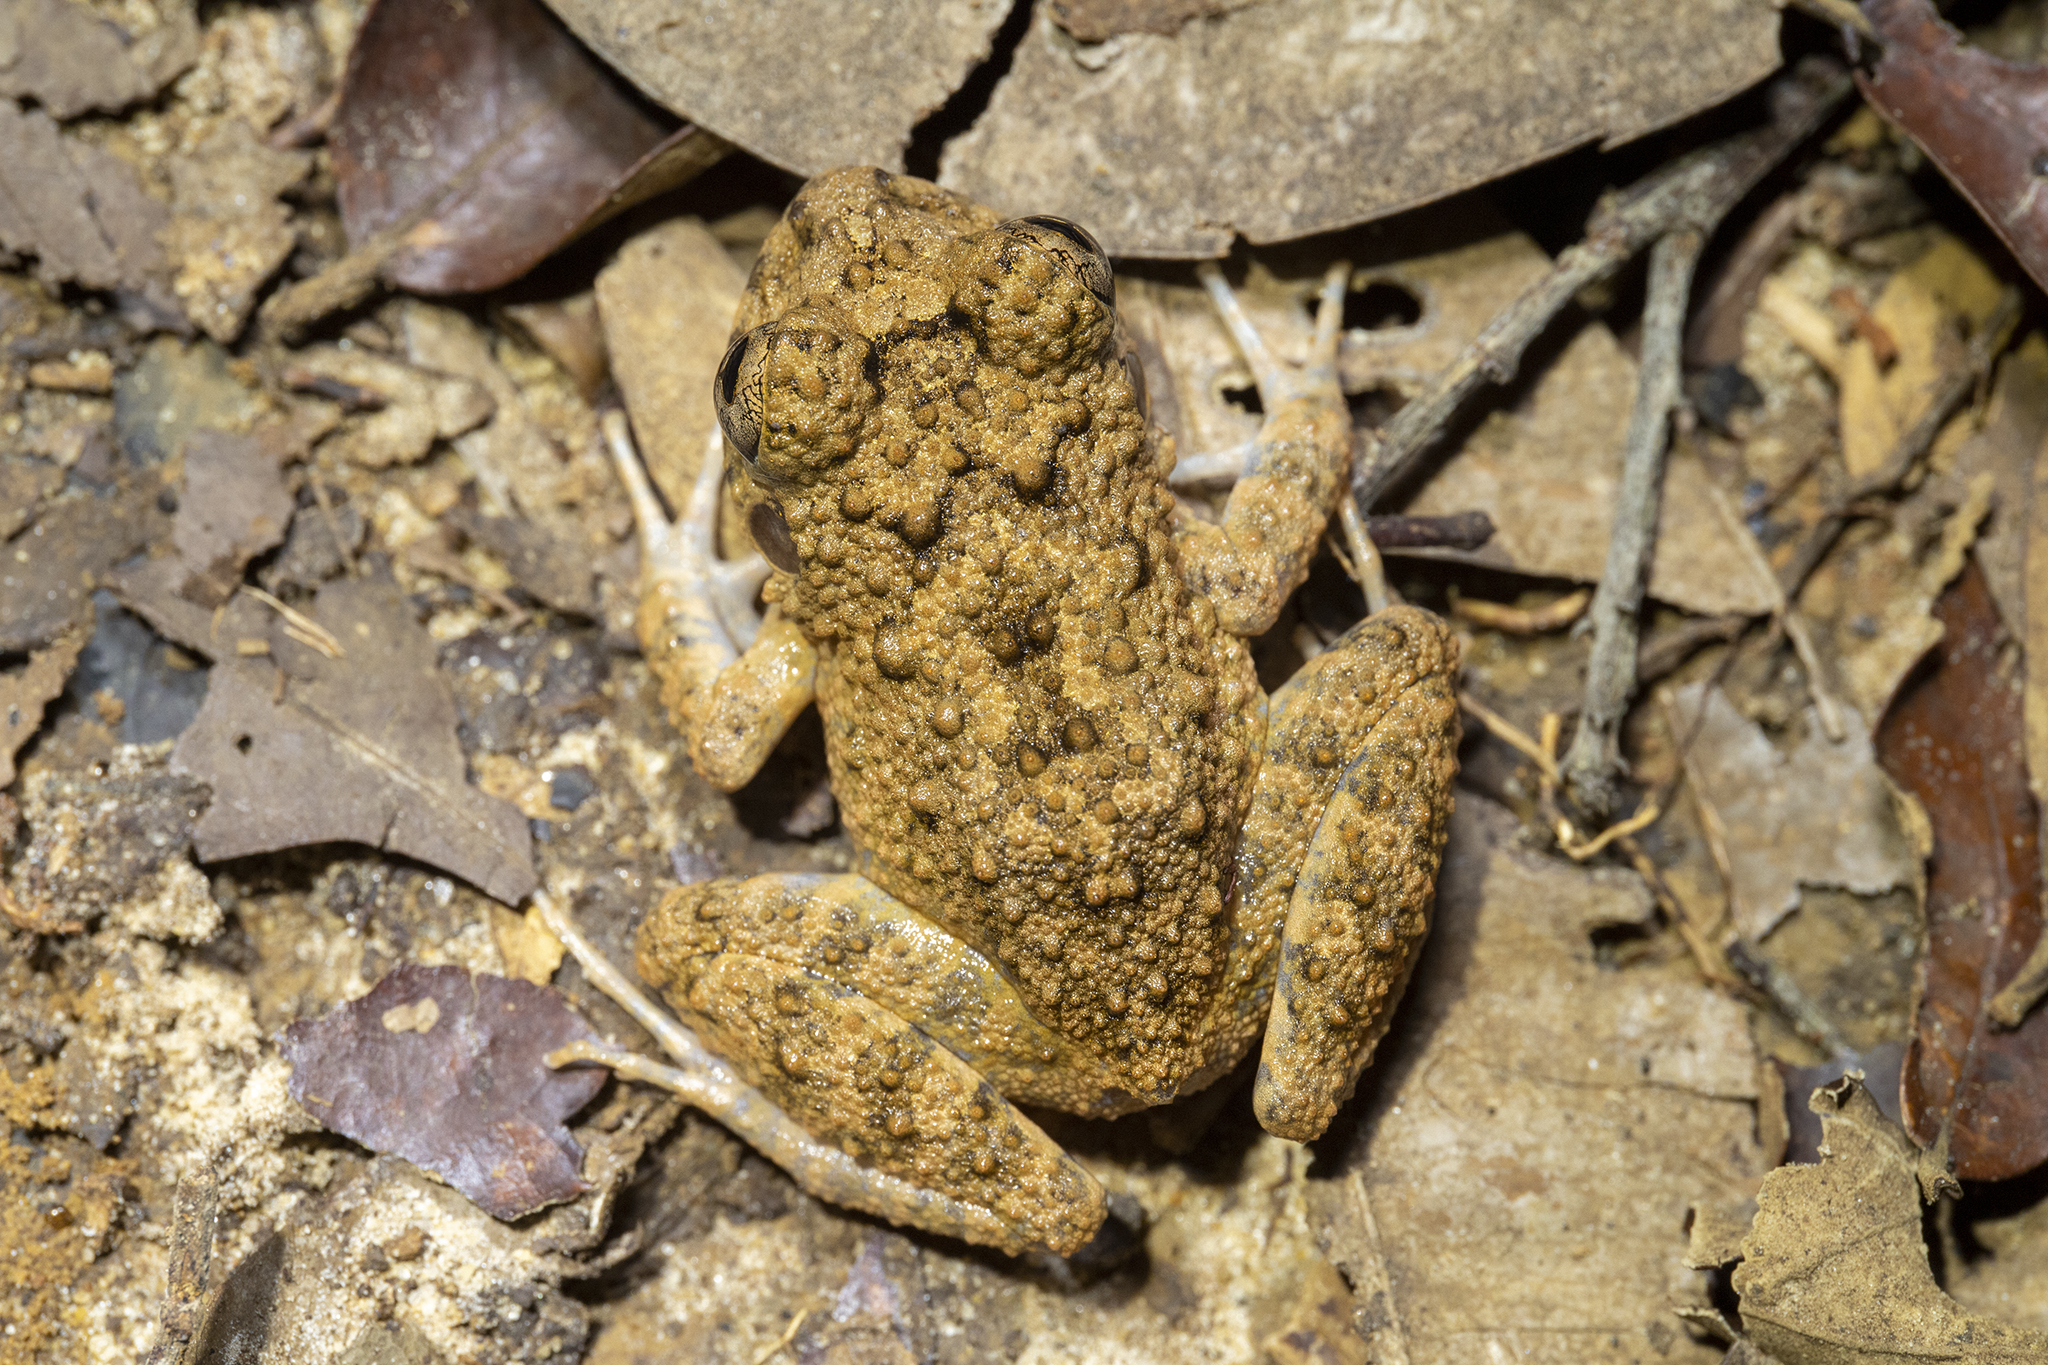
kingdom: Animalia
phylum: Chordata
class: Amphibia
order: Anura
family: Craugastoridae
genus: Oreobates
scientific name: Oreobates quixensis
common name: Common big-headed frog
